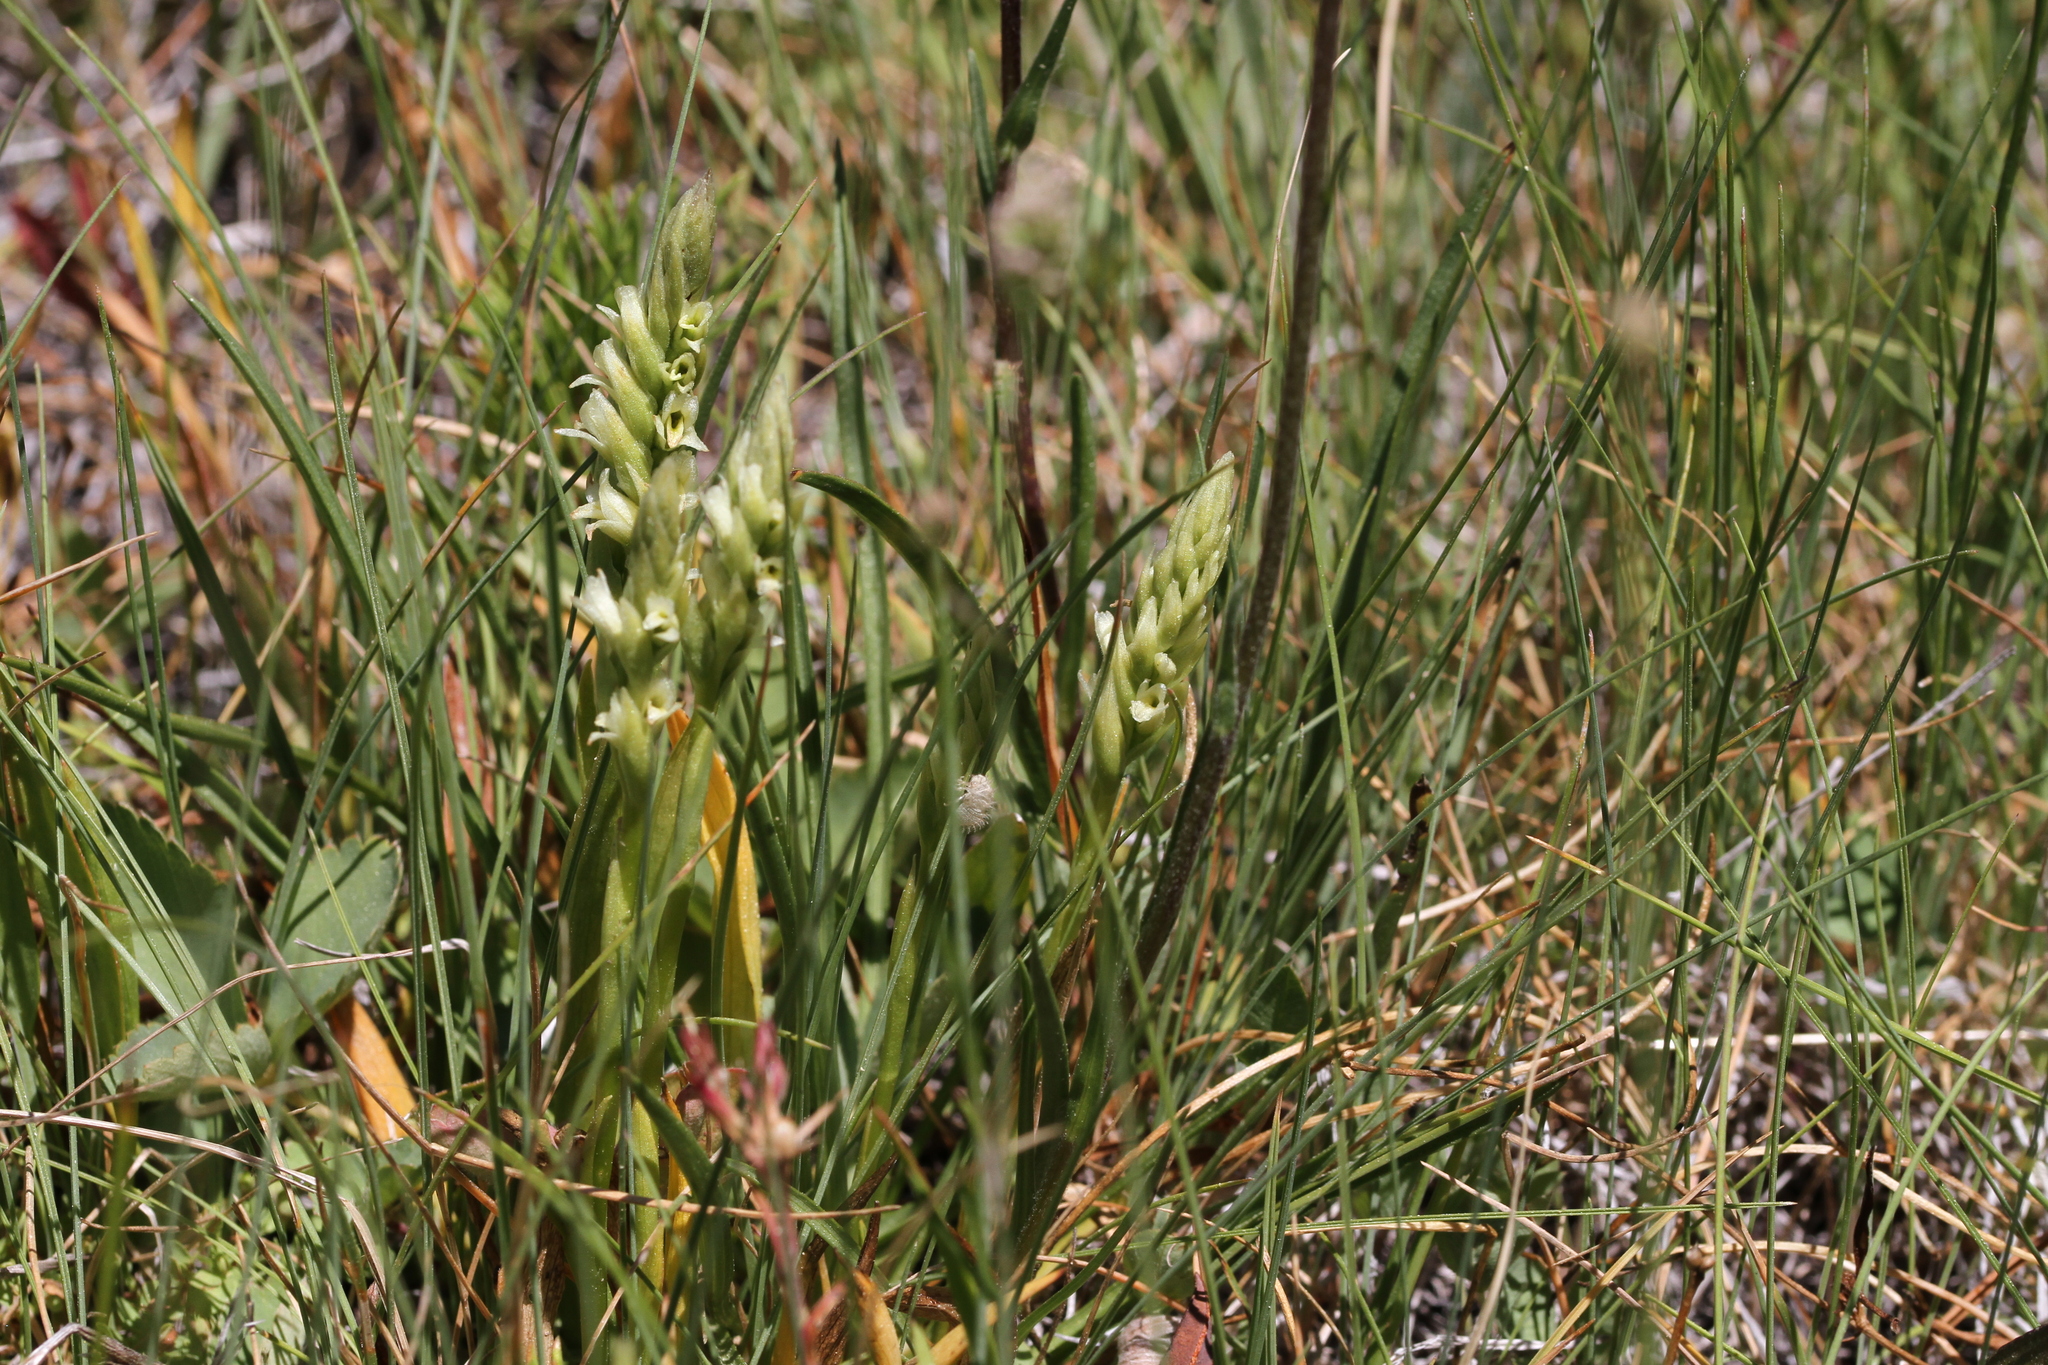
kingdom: Plantae
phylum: Tracheophyta
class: Liliopsida
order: Asparagales
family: Orchidaceae
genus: Spiranthes
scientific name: Spiranthes stellata
